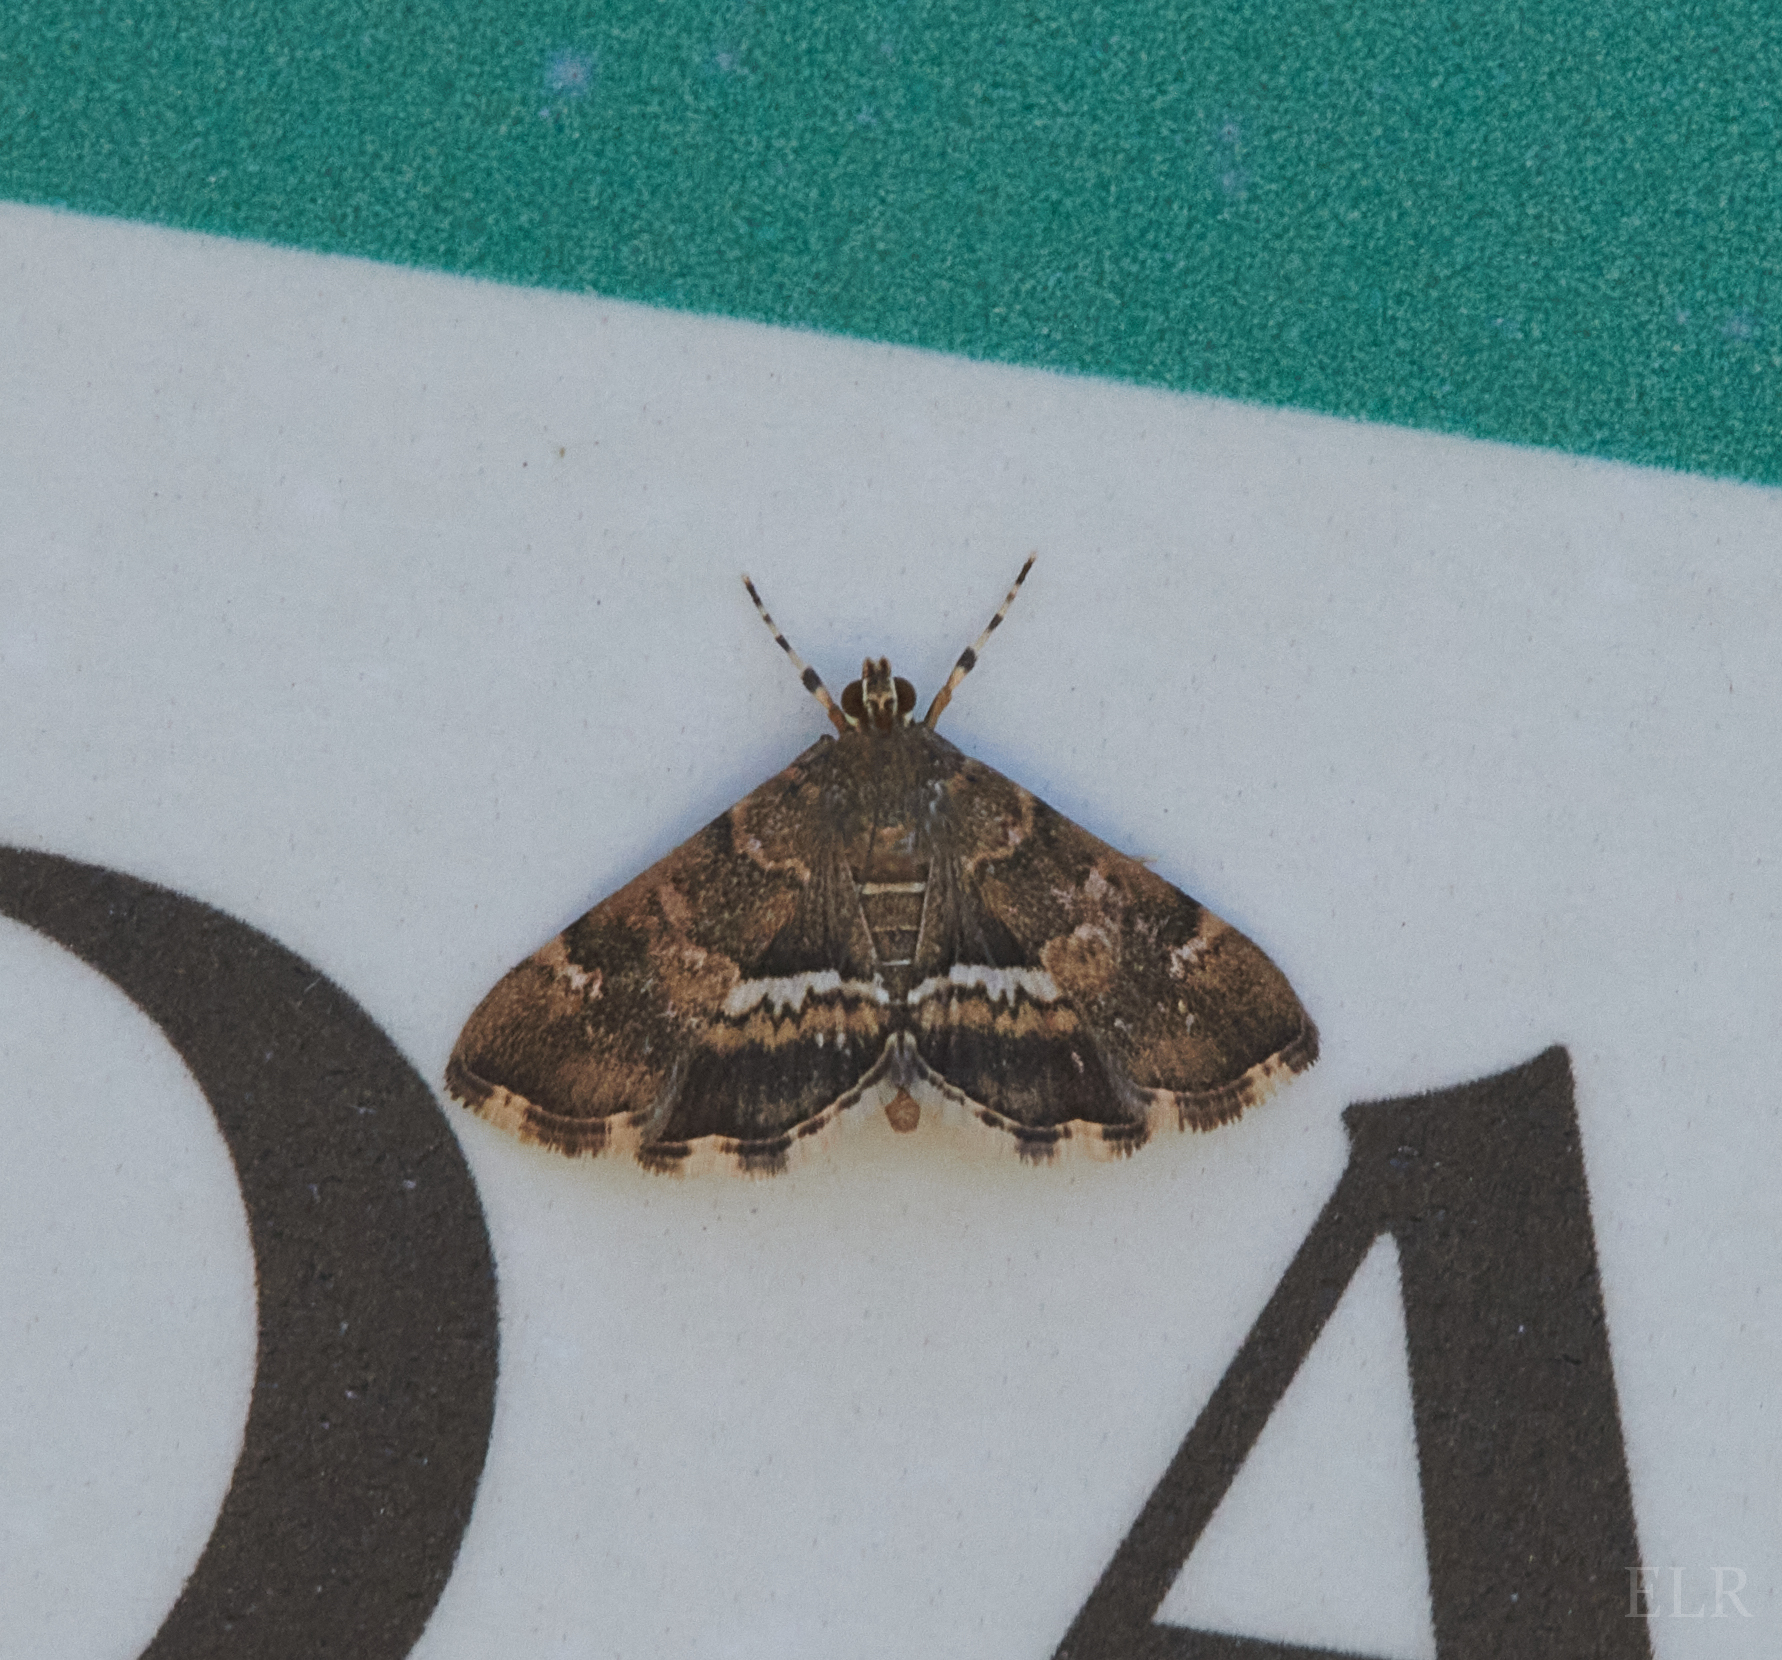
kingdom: Animalia
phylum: Arthropoda
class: Insecta
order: Lepidoptera
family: Crambidae
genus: Hymenia
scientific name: Hymenia perspectalis
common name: Spotted beet webworm
